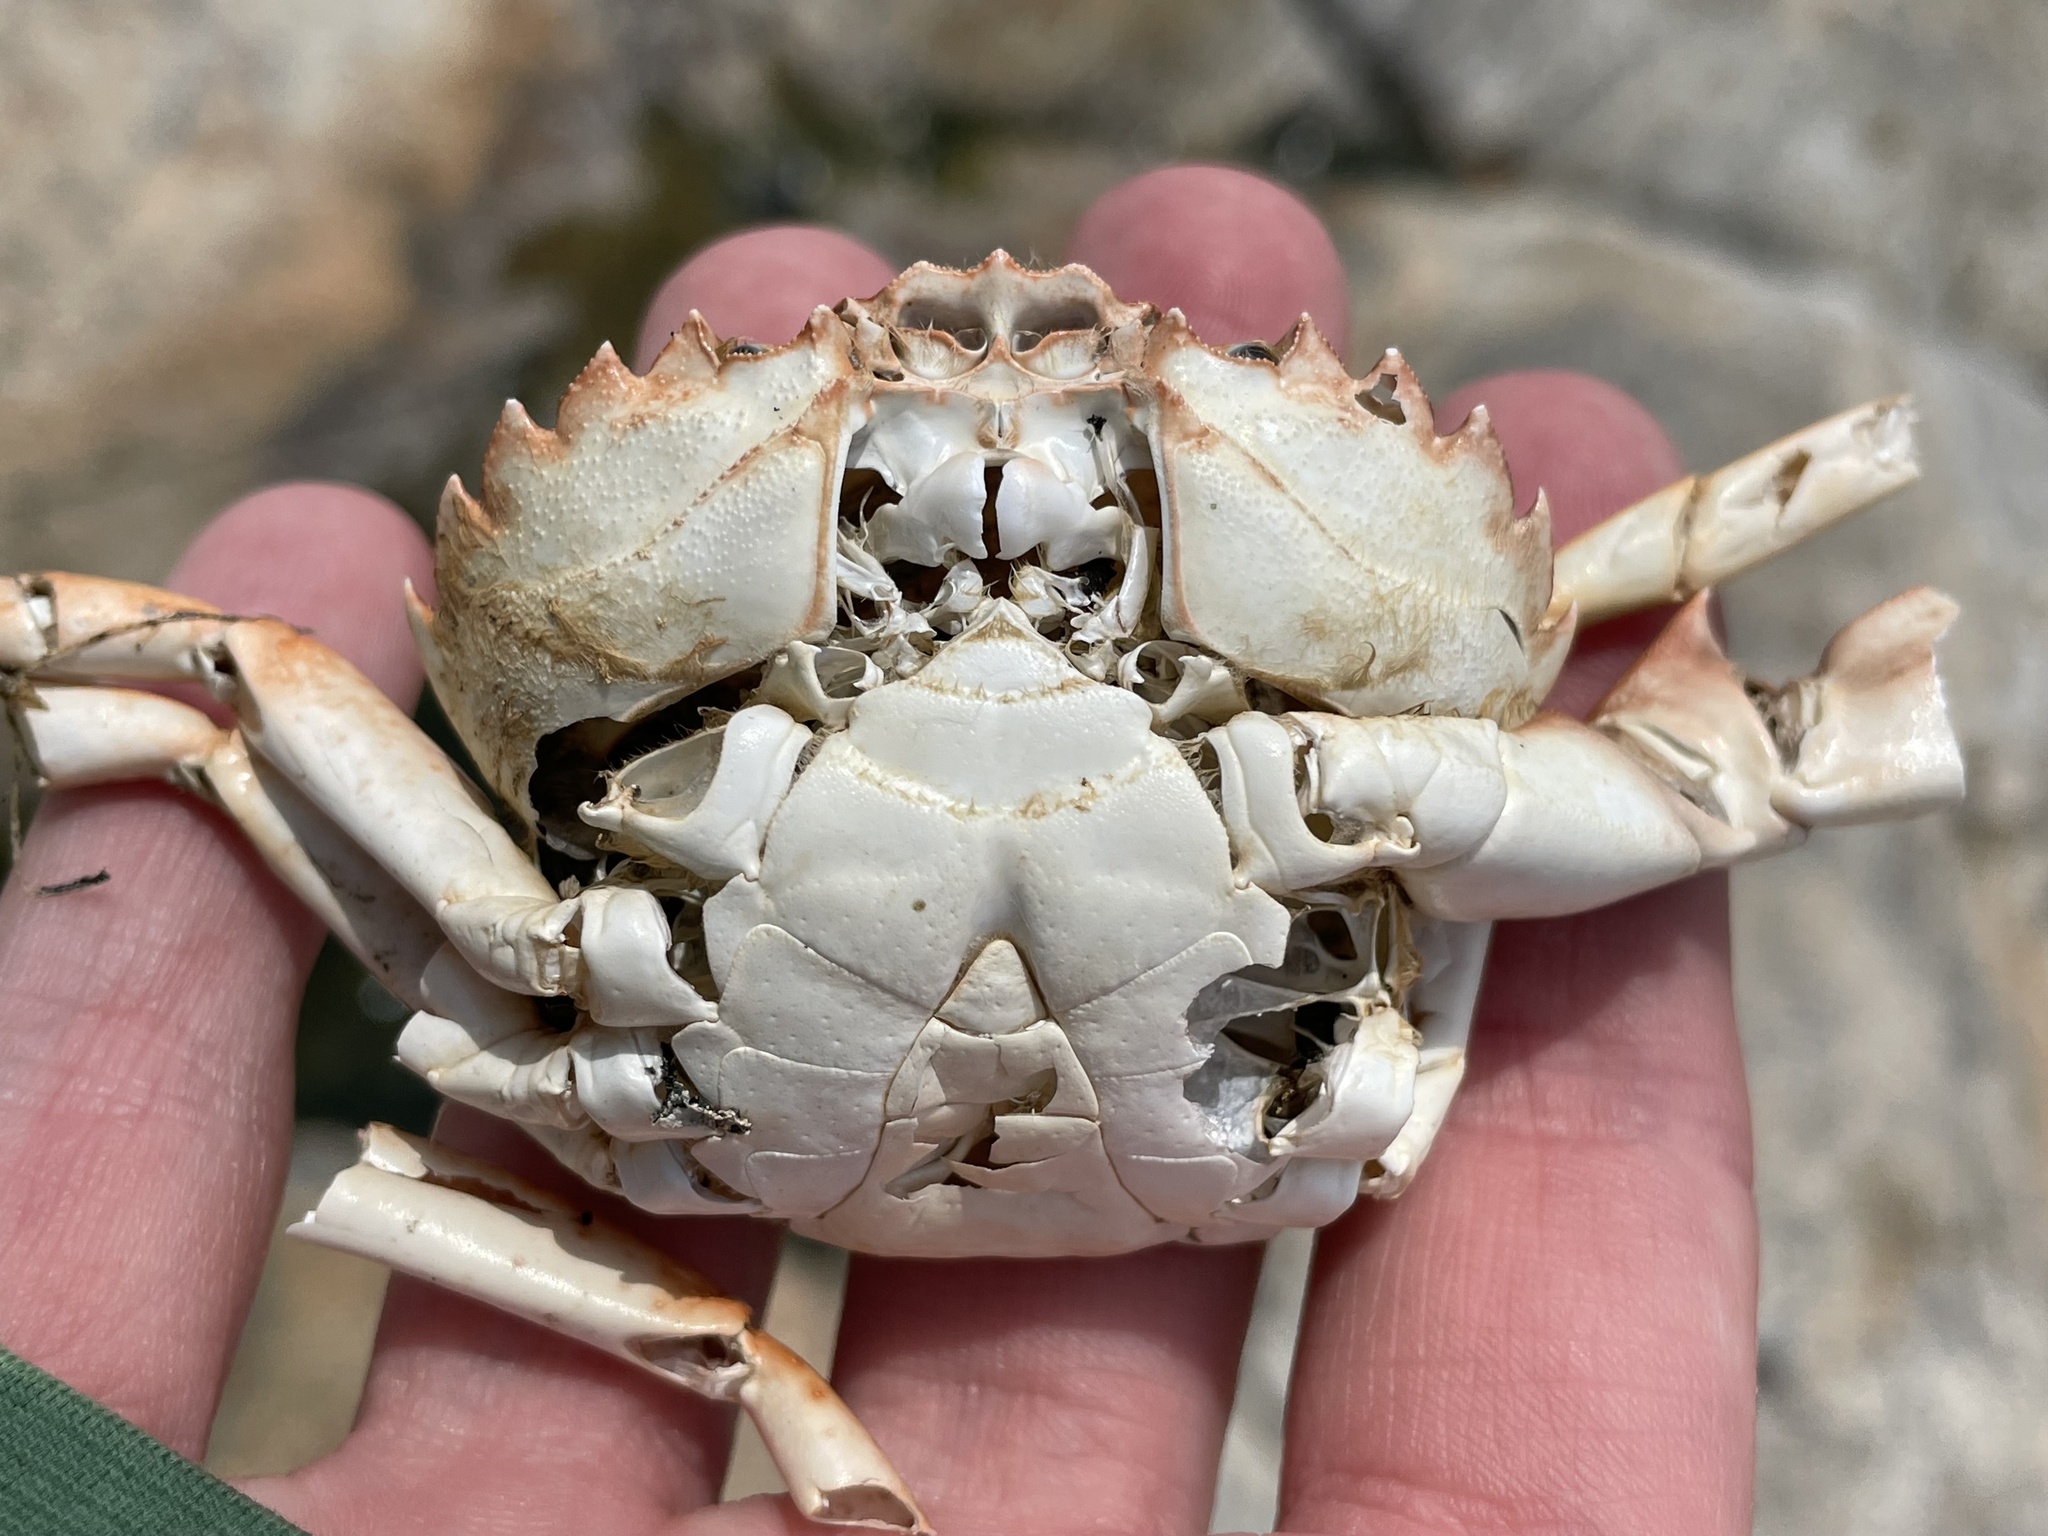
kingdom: Animalia
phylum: Arthropoda
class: Malacostraca
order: Decapoda
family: Carcinidae
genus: Carcinus
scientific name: Carcinus maenas
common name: European green crab
